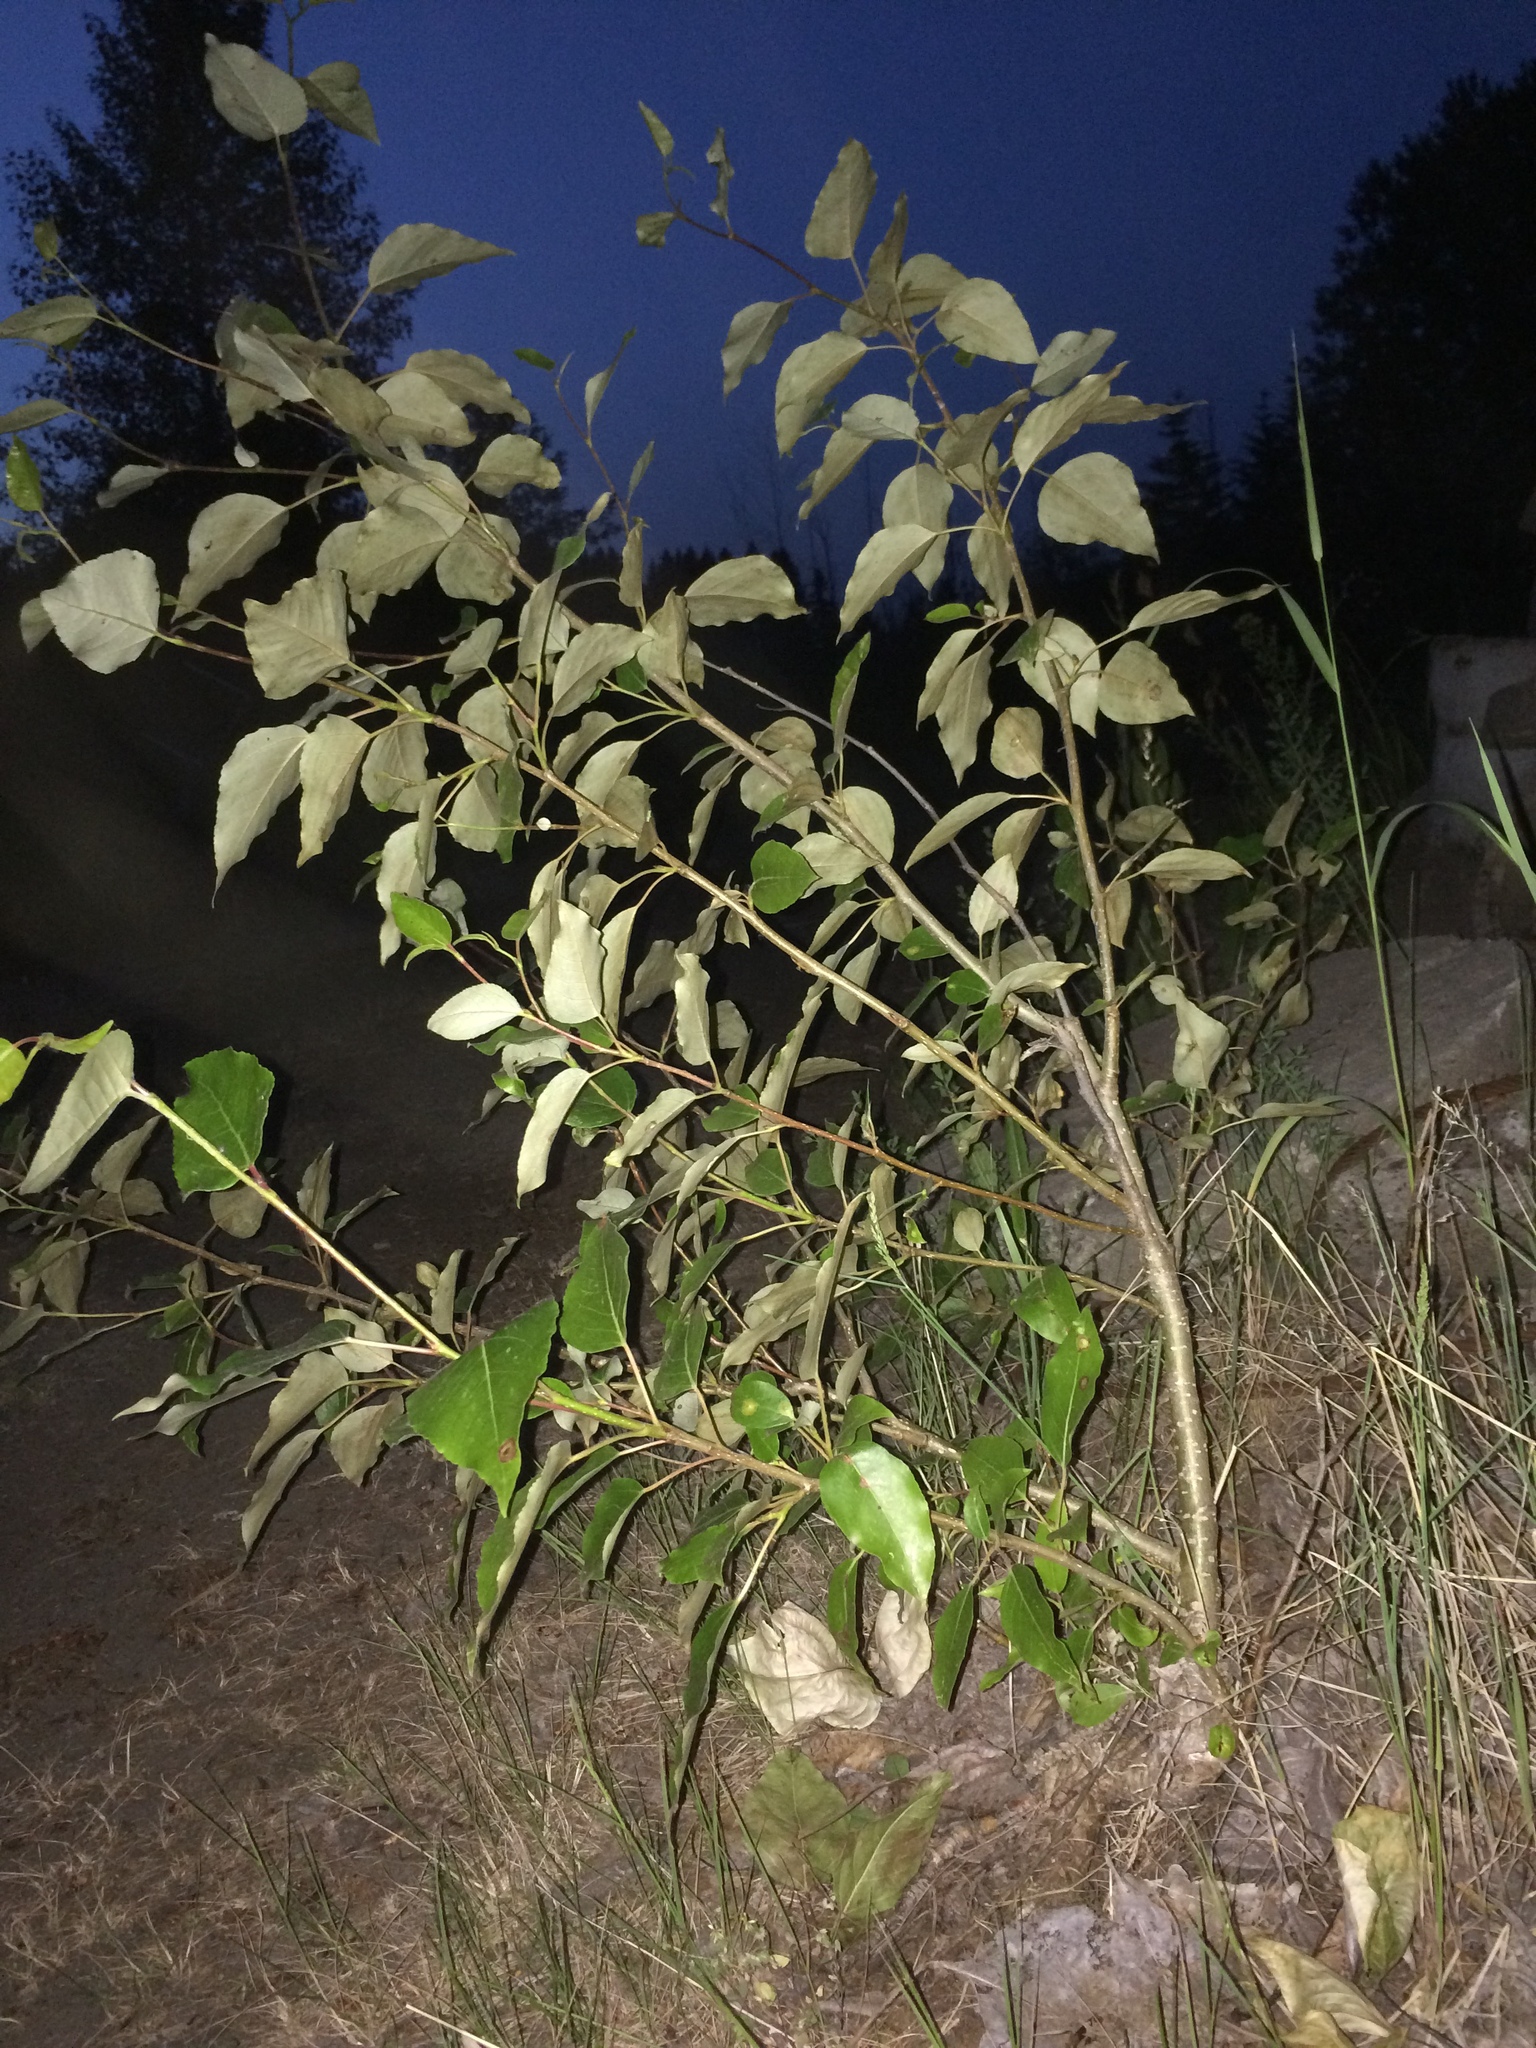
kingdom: Plantae
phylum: Tracheophyta
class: Magnoliopsida
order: Malpighiales
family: Salicaceae
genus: Populus
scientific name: Populus trichocarpa
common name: Black cottonwood
